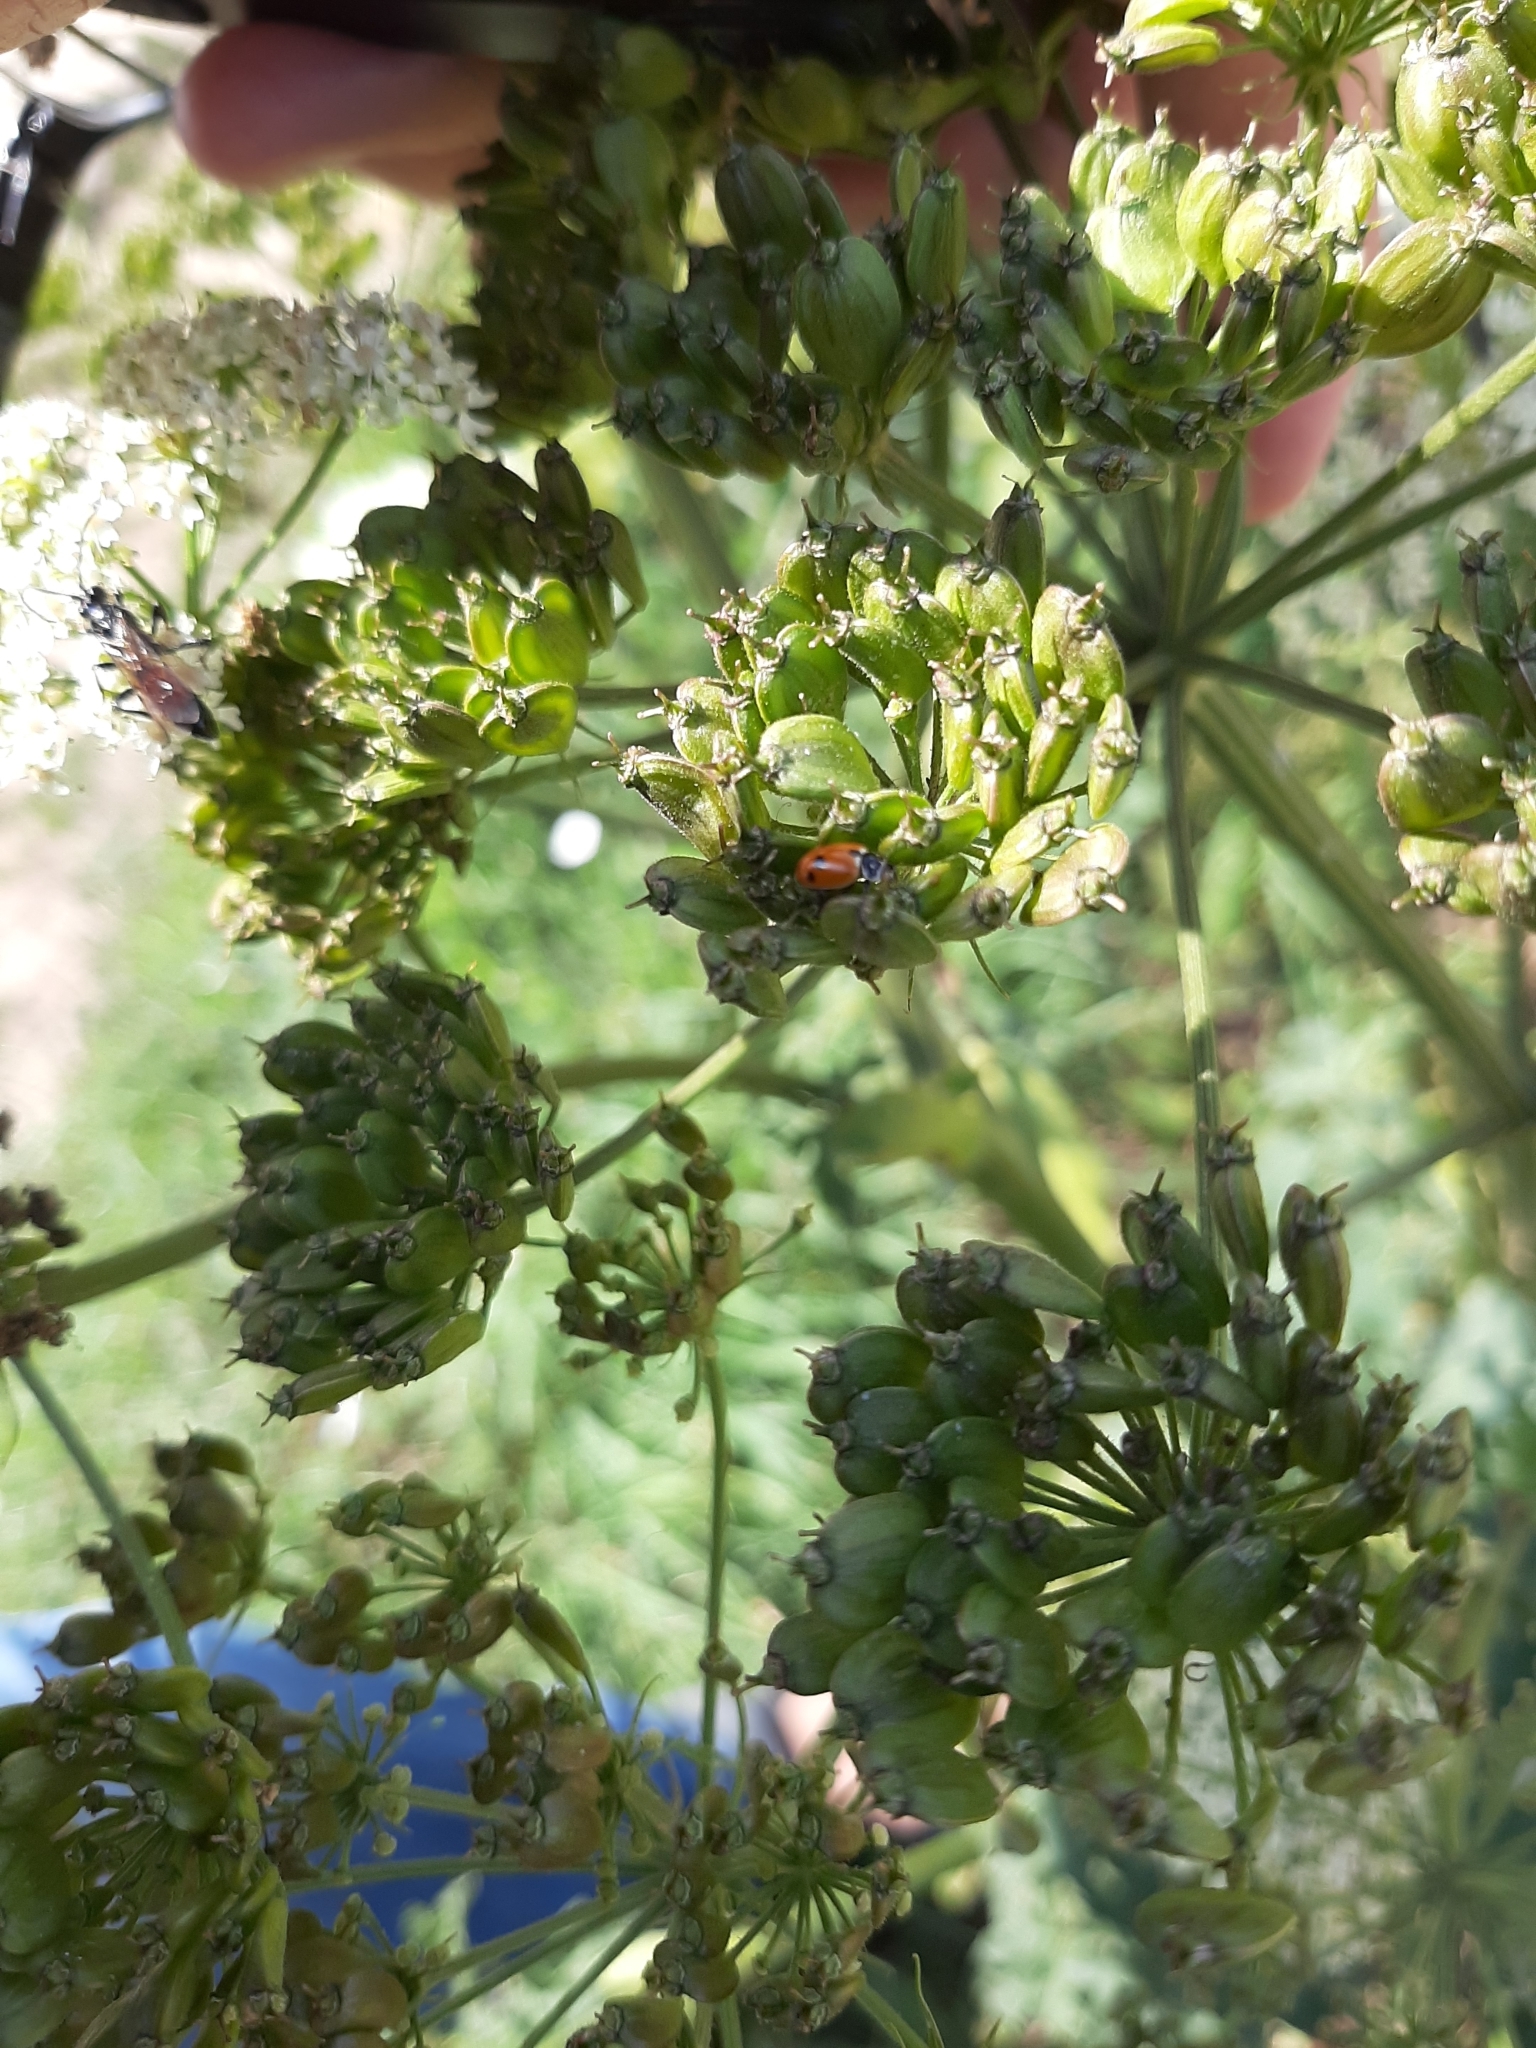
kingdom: Animalia
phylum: Arthropoda
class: Insecta
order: Coleoptera
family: Coccinellidae
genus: Hippodamia
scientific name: Hippodamia variegata
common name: Ladybird beetle
